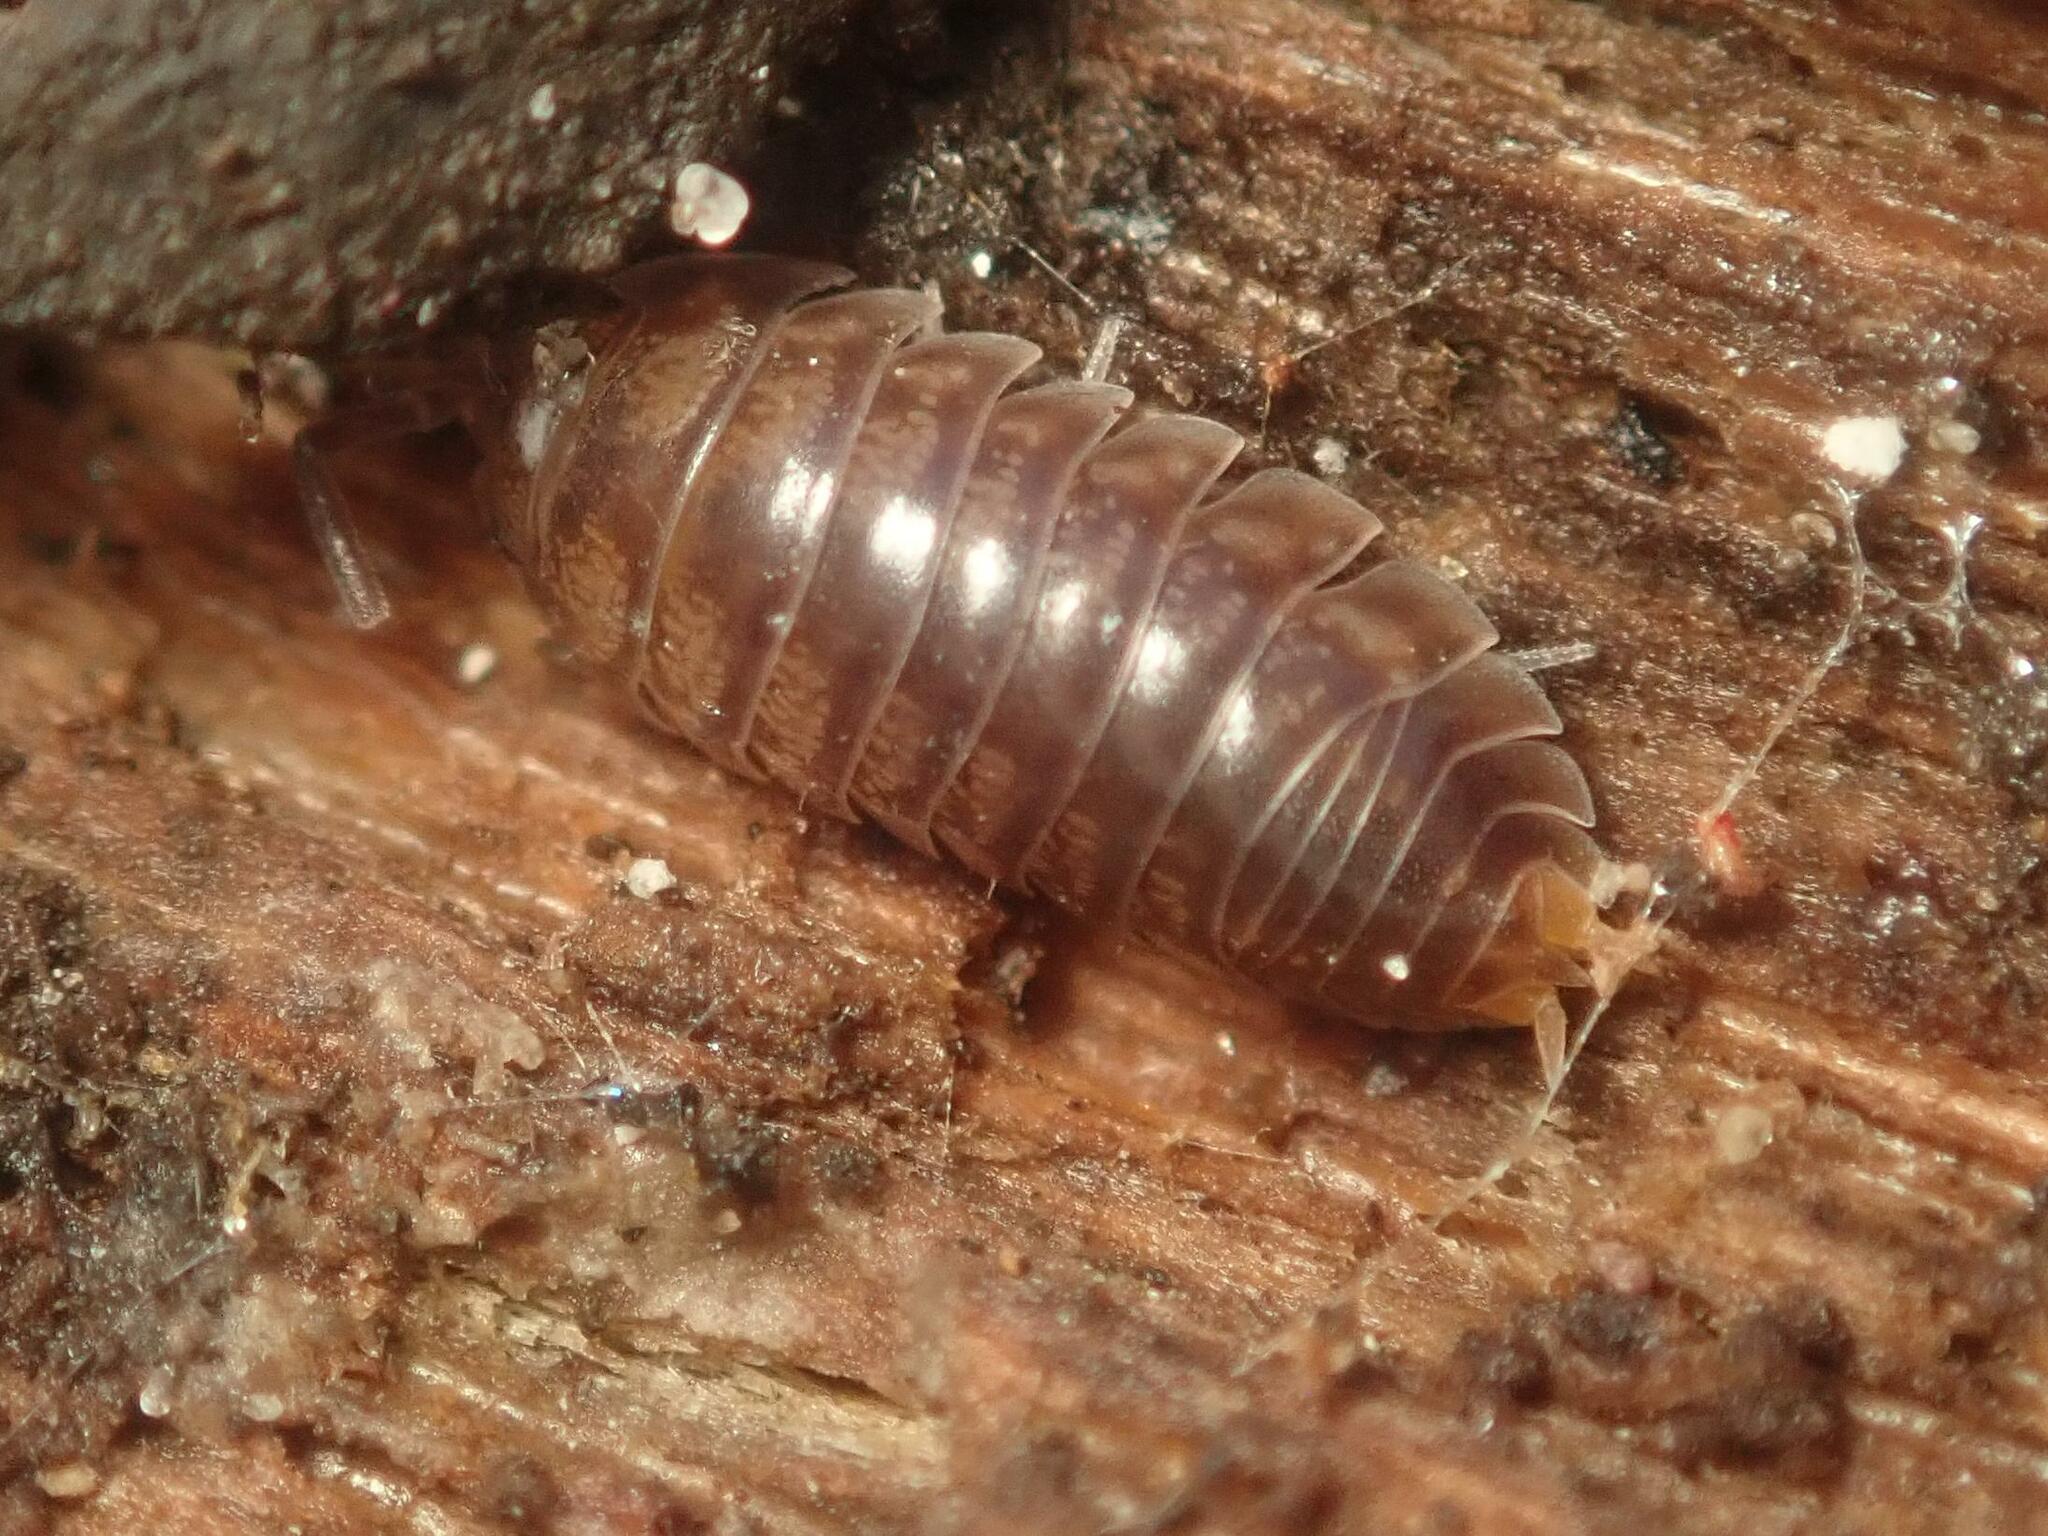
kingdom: Animalia
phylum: Arthropoda
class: Malacostraca
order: Isopoda
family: Cylisticidae
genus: Cylisticus
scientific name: Cylisticus convexus
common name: Curly woodlouse
